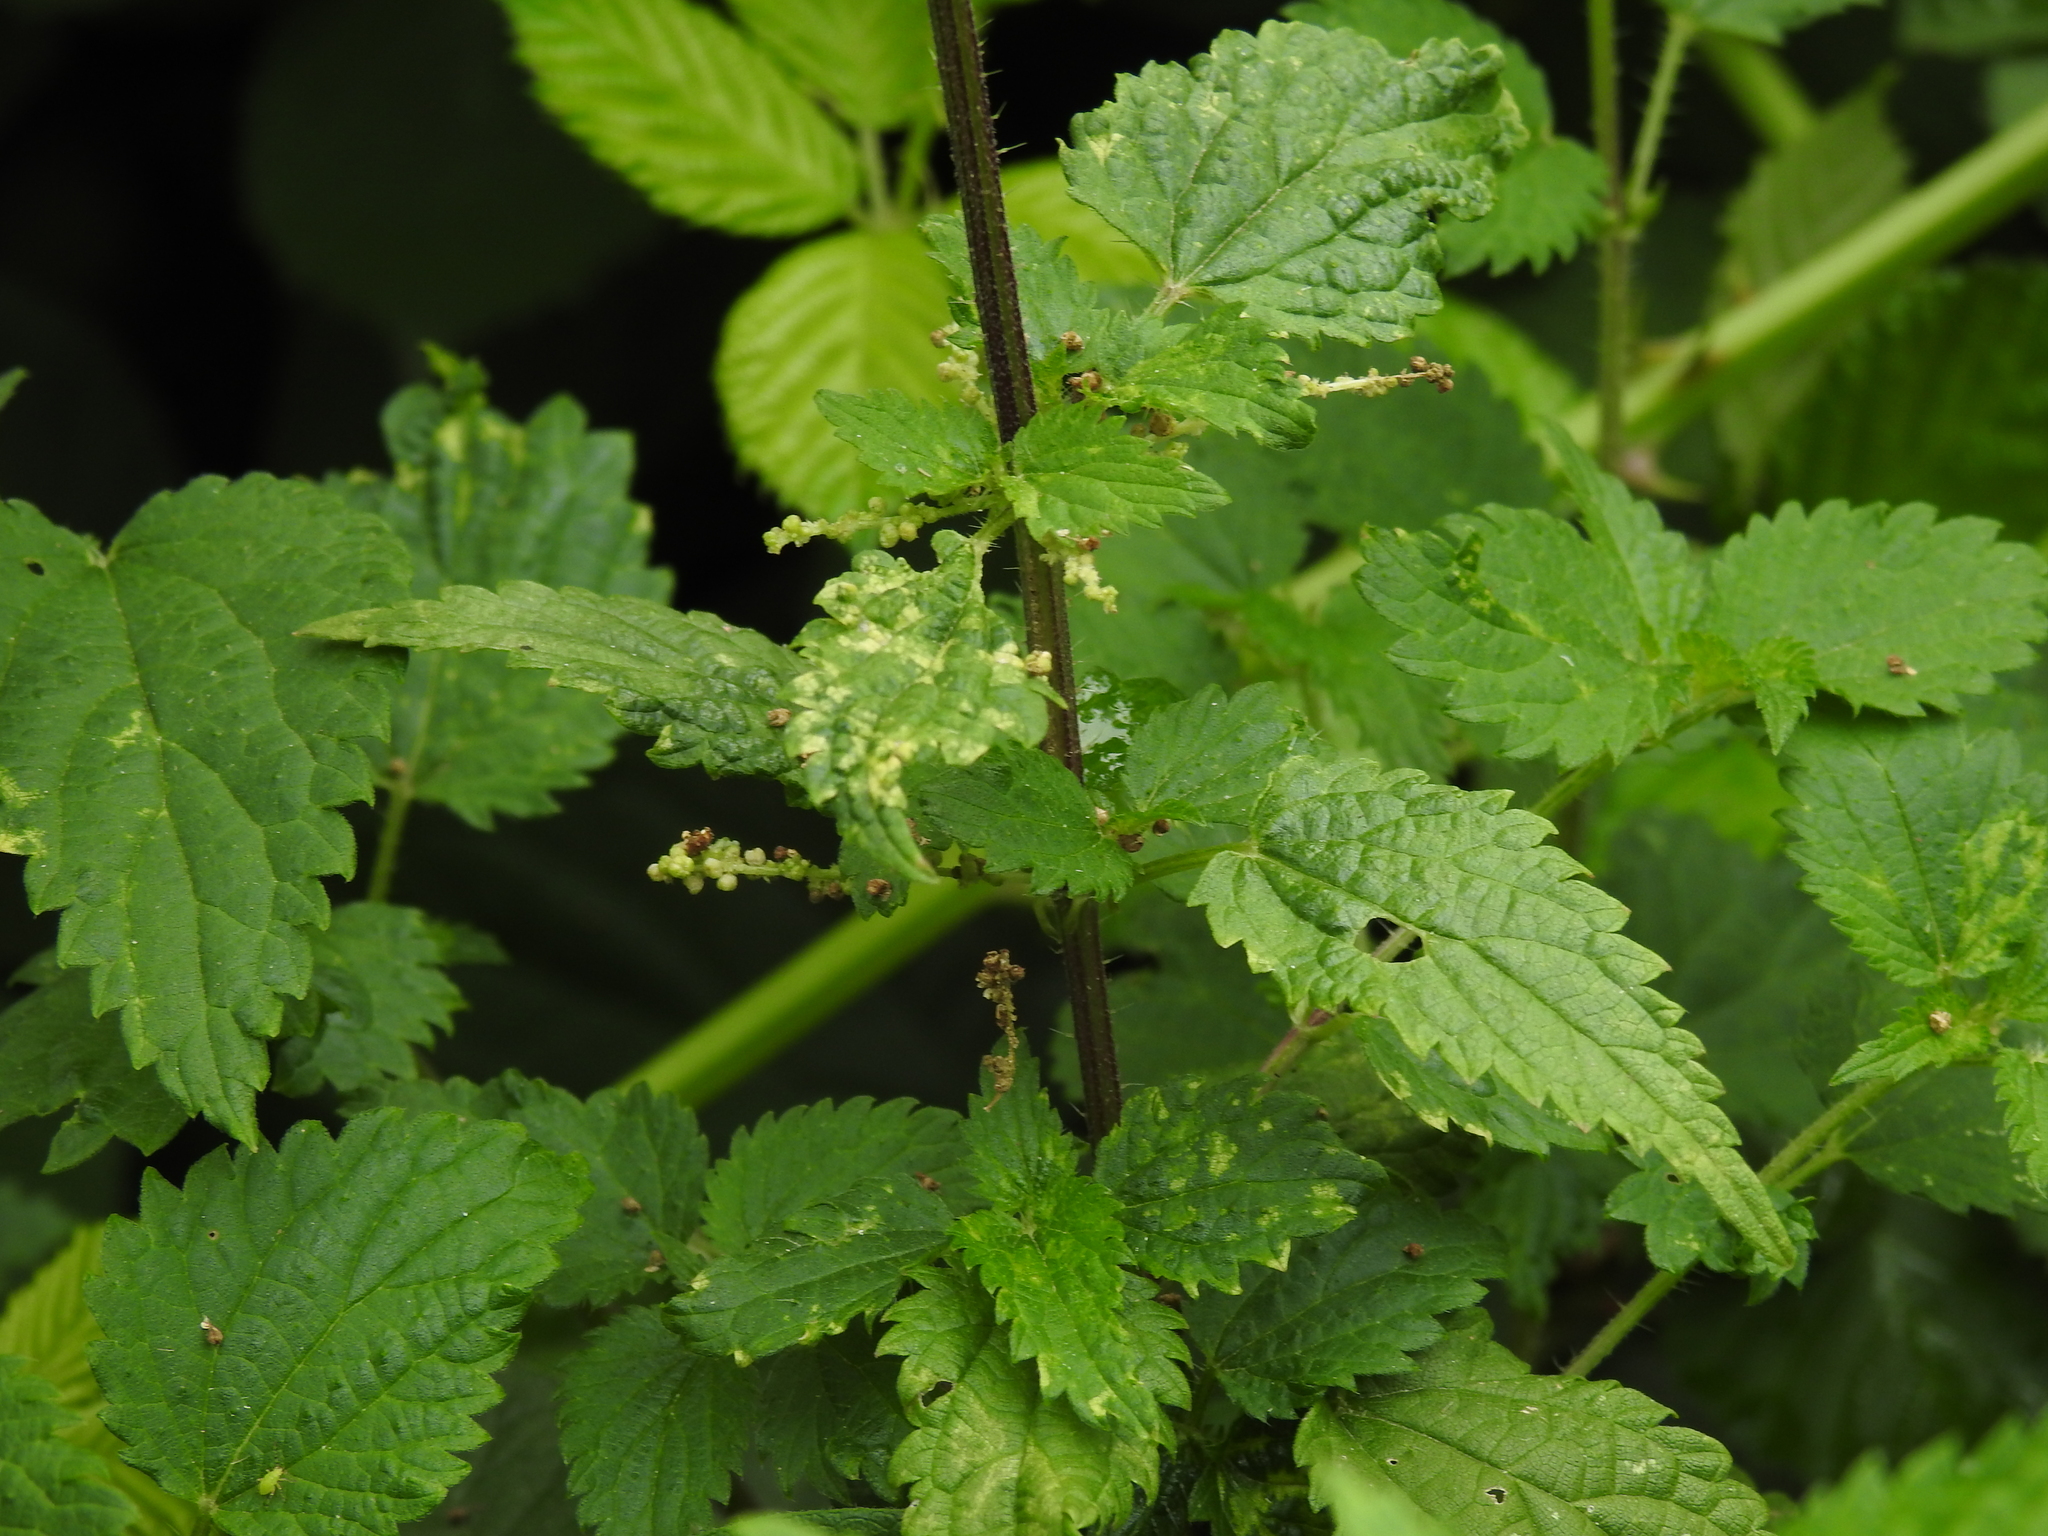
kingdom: Animalia
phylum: Arthropoda
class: Insecta
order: Diptera
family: Cecidomyiidae
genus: Dasineura
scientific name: Dasineura urticae
